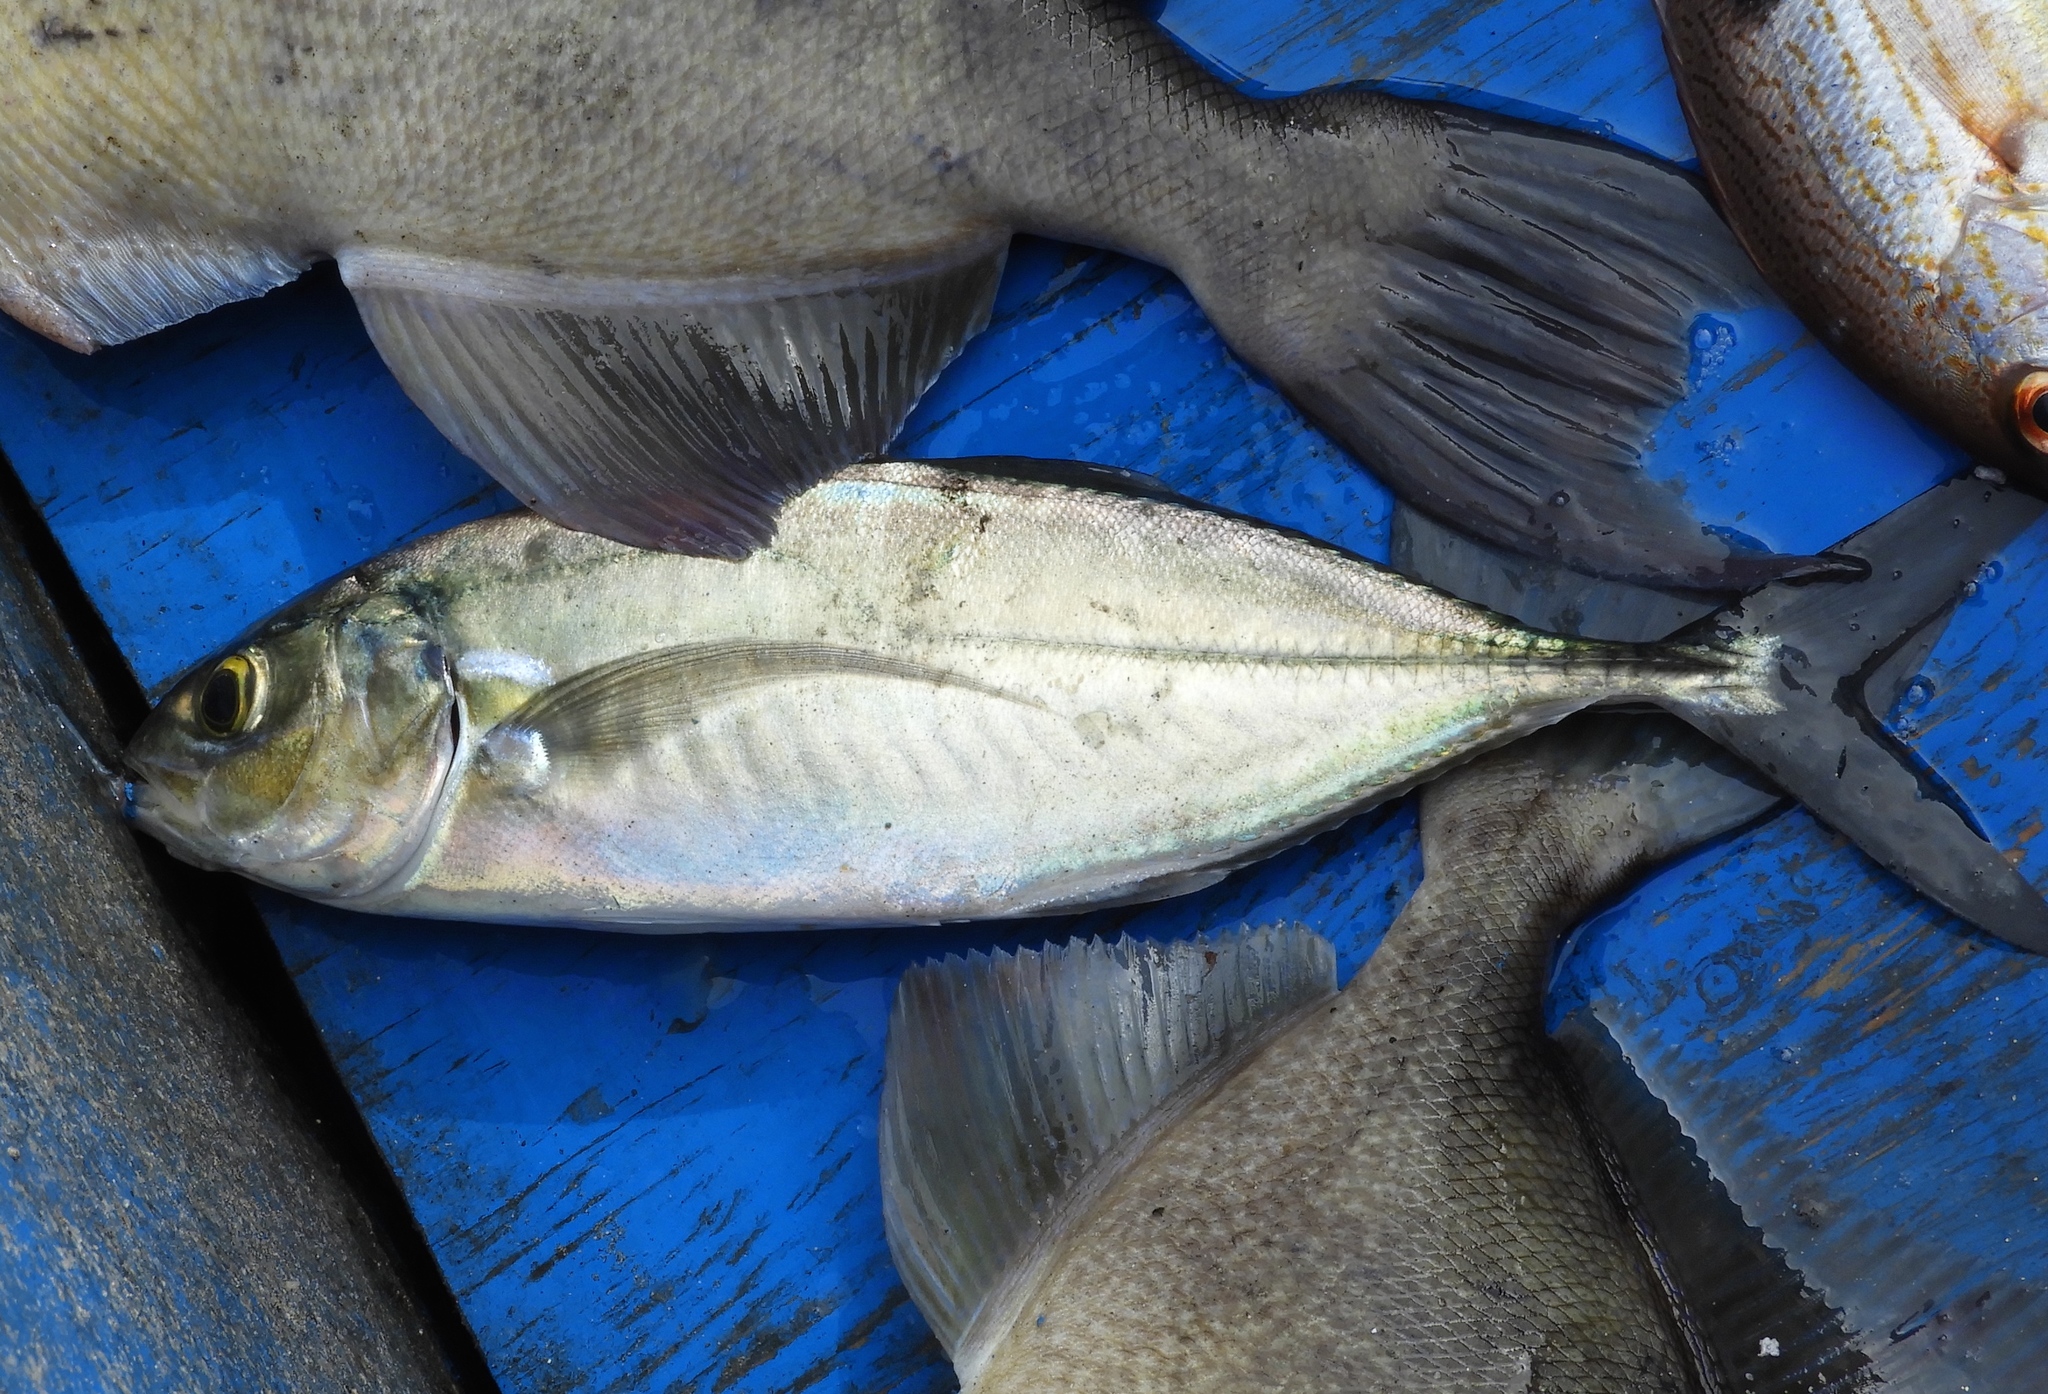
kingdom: Animalia
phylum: Chordata
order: Perciformes
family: Carangidae
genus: Caranx
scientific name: Caranx caballus
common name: Green jack
